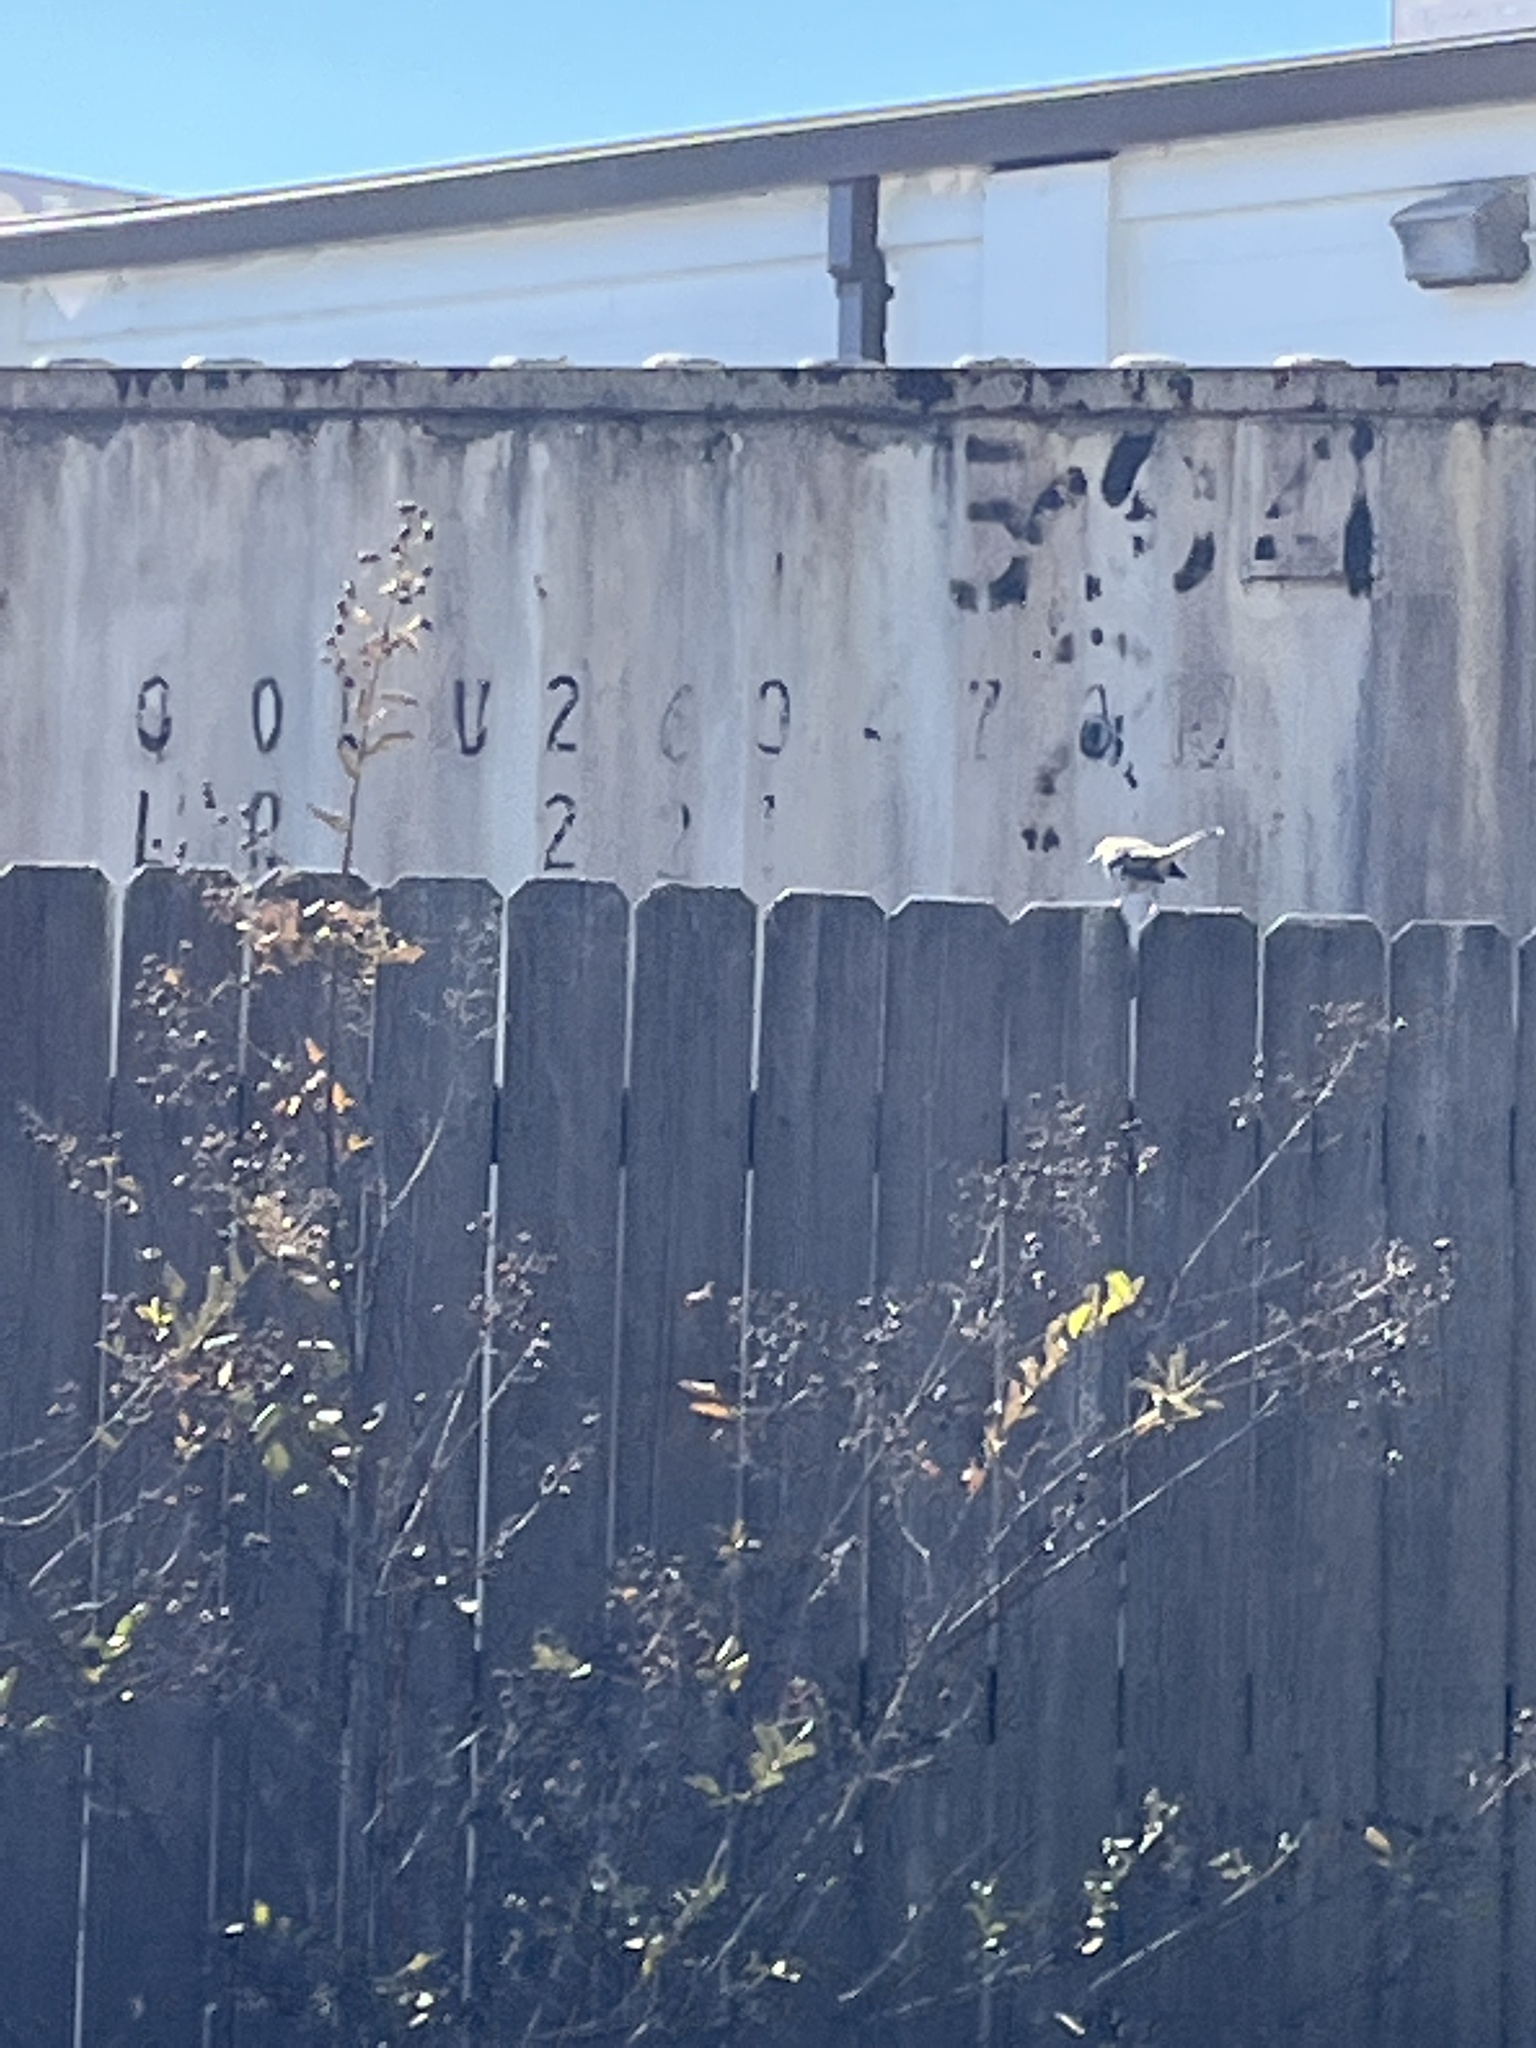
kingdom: Animalia
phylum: Chordata
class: Aves
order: Passeriformes
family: Mimidae
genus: Mimus
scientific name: Mimus polyglottos
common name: Northern mockingbird
